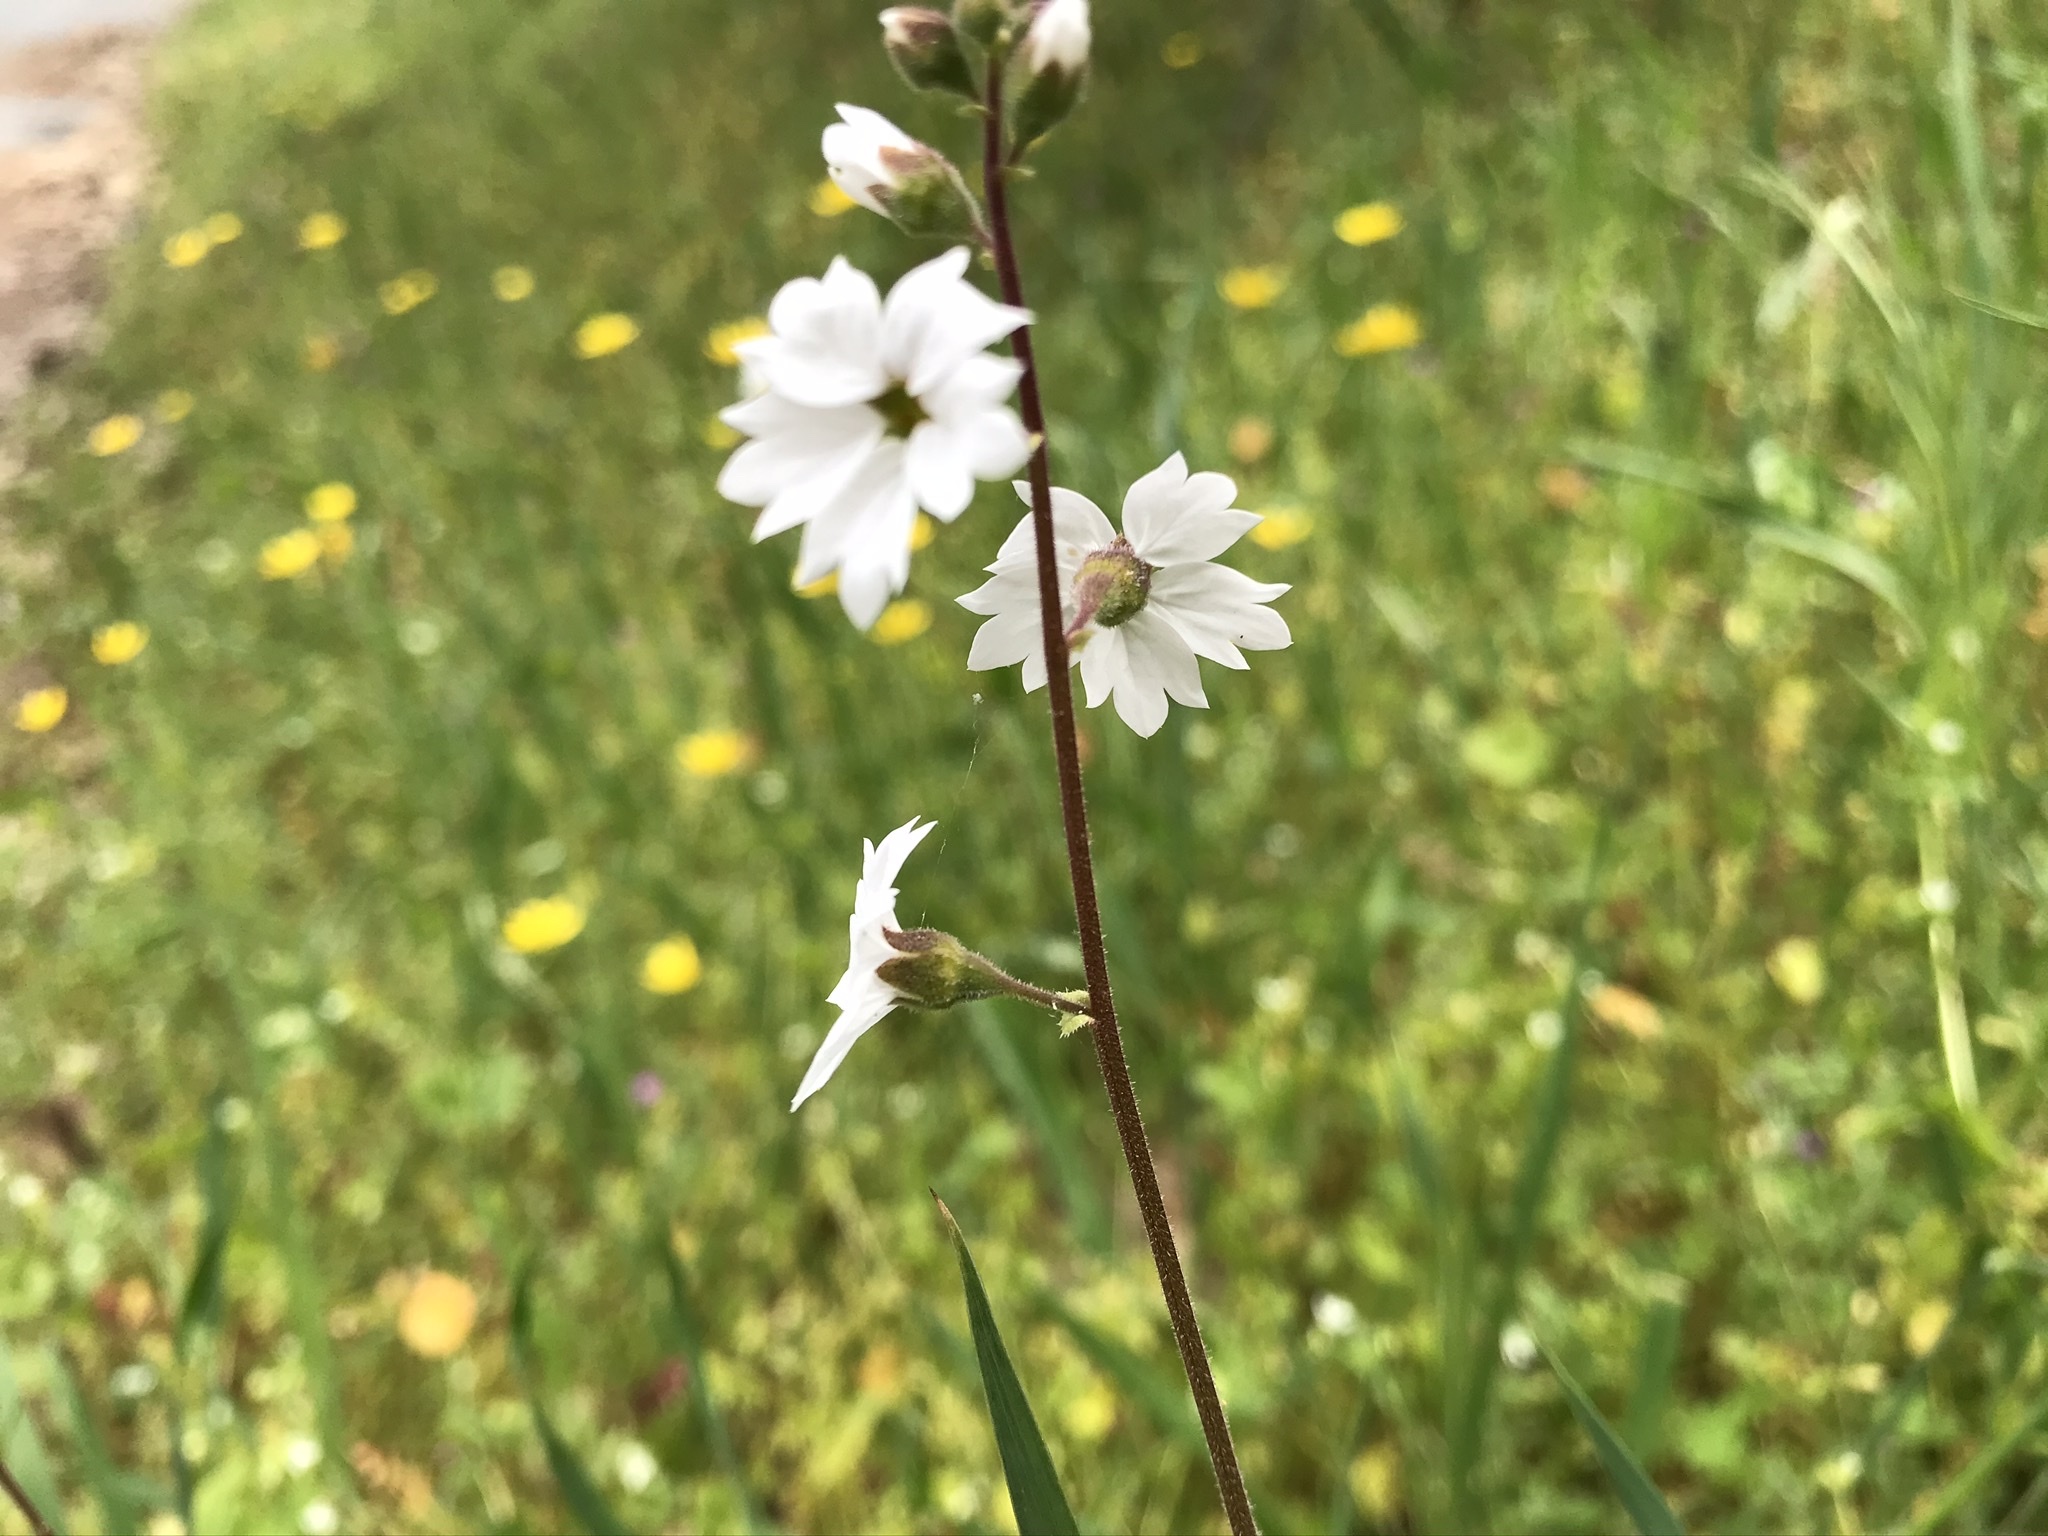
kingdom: Plantae
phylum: Tracheophyta
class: Magnoliopsida
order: Saxifragales
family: Saxifragaceae
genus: Lithophragma
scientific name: Lithophragma affine
